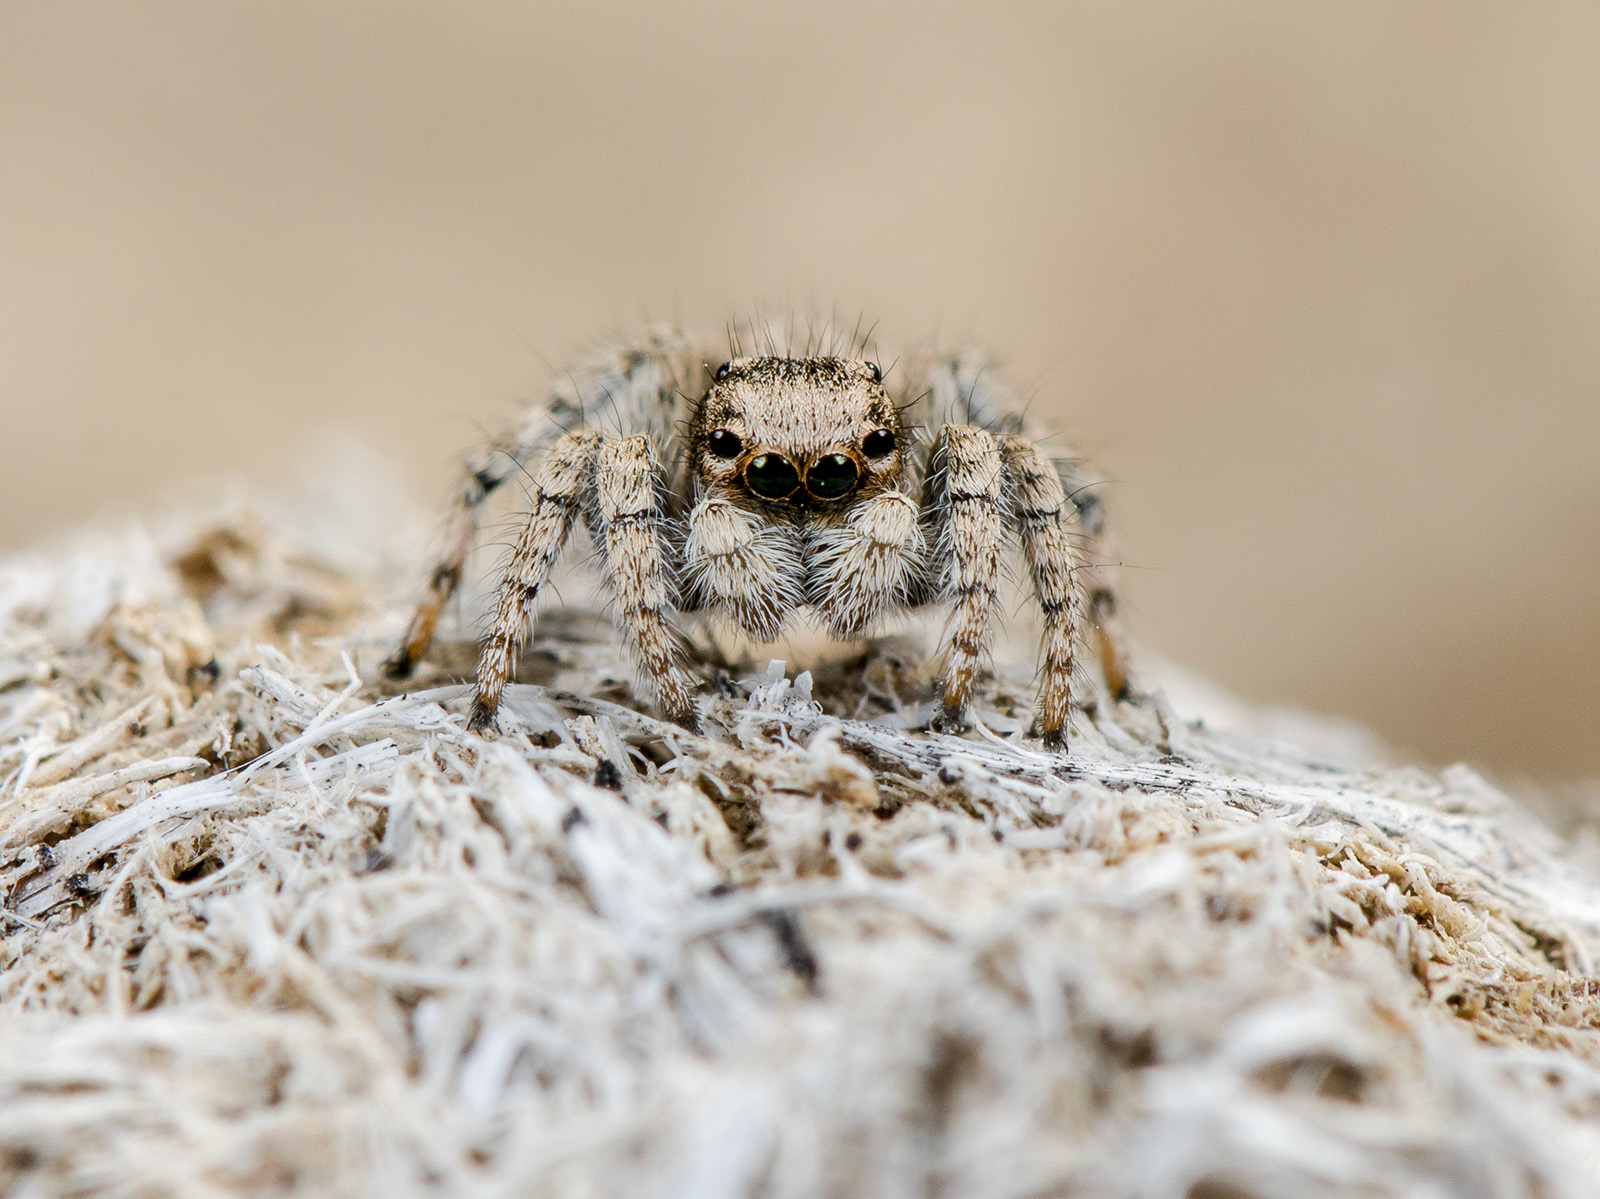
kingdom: Animalia
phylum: Arthropoda
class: Arachnida
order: Araneae
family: Salticidae
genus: Aelurillus
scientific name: Aelurillus concolor
